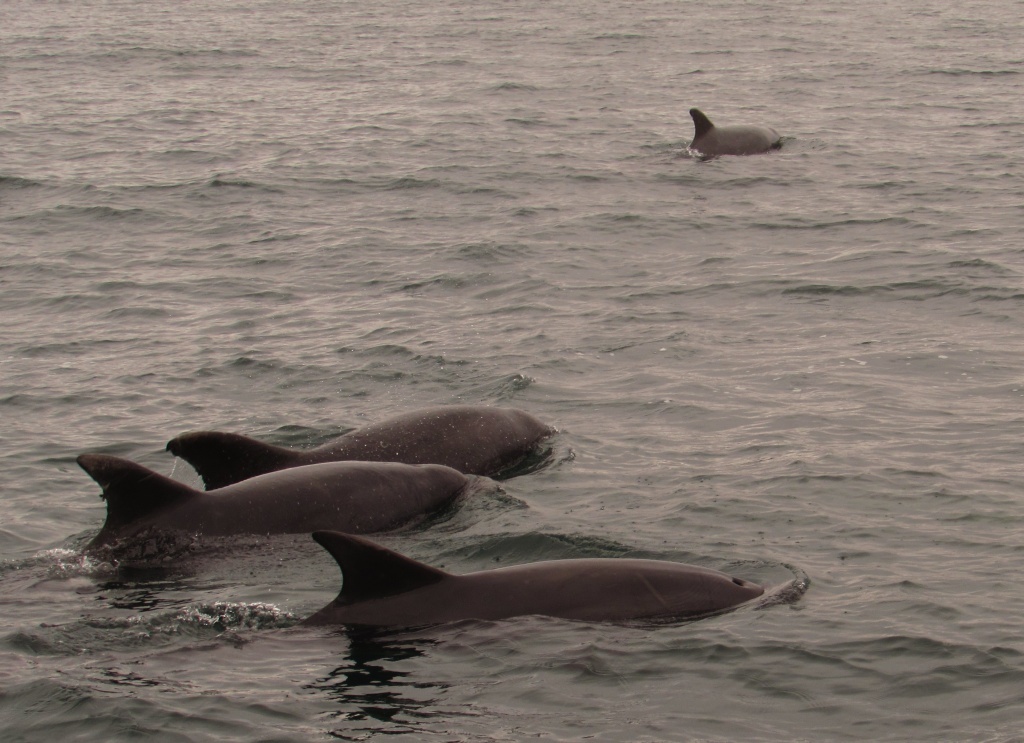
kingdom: Animalia
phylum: Chordata
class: Mammalia
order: Cetacea
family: Delphinidae
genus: Tursiops
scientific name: Tursiops truncatus
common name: Bottlenose dolphin
